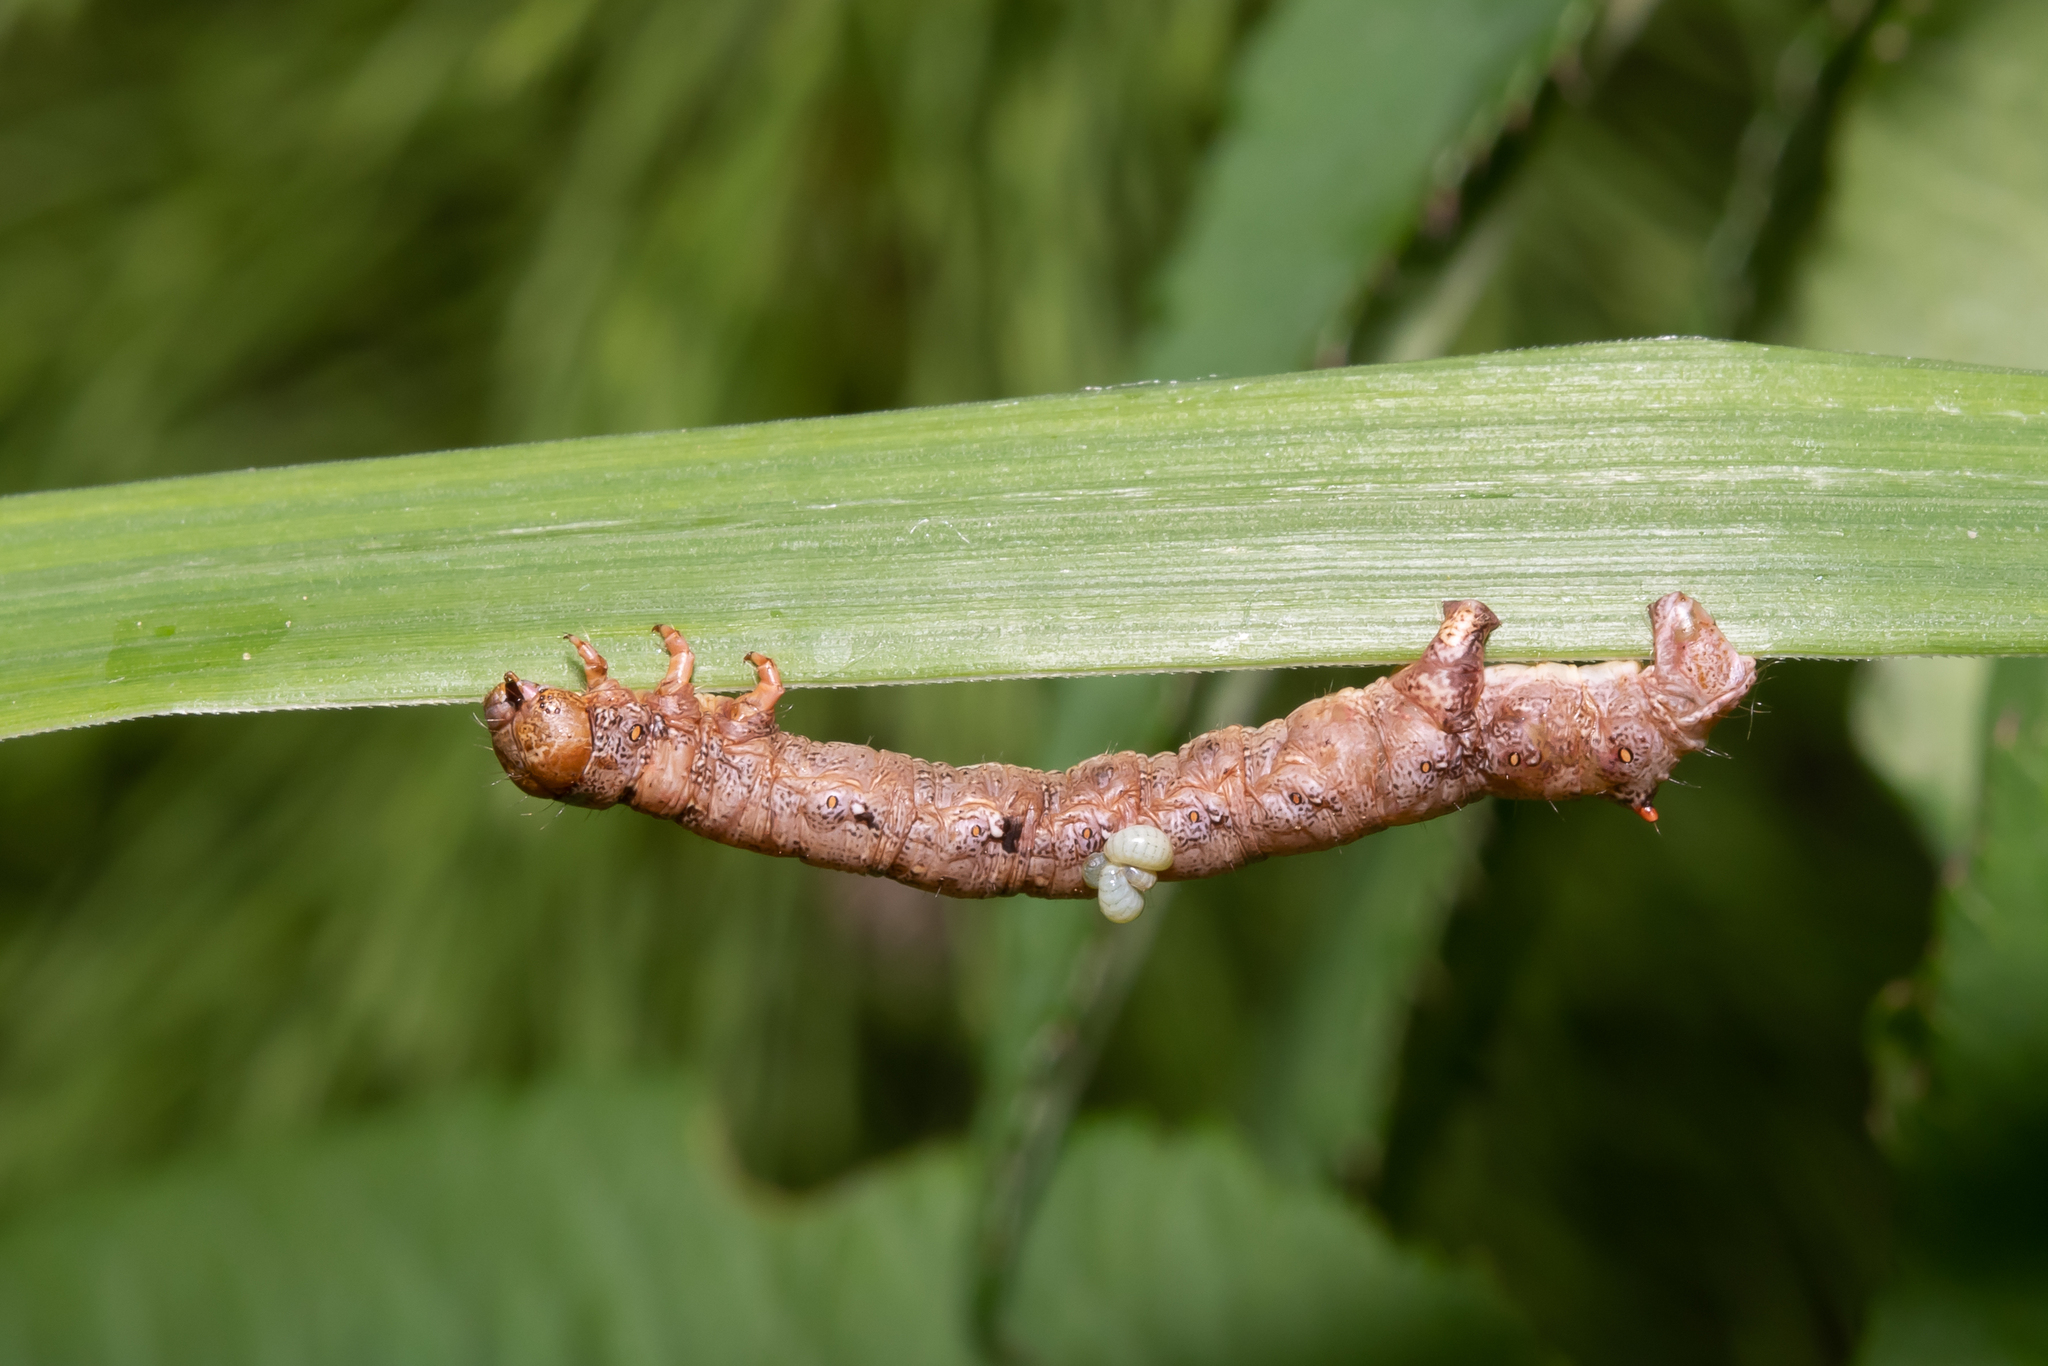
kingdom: Animalia
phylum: Arthropoda
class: Insecta
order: Lepidoptera
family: Geometridae
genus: Colotois
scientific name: Colotois pennaria
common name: Feathered thorn
